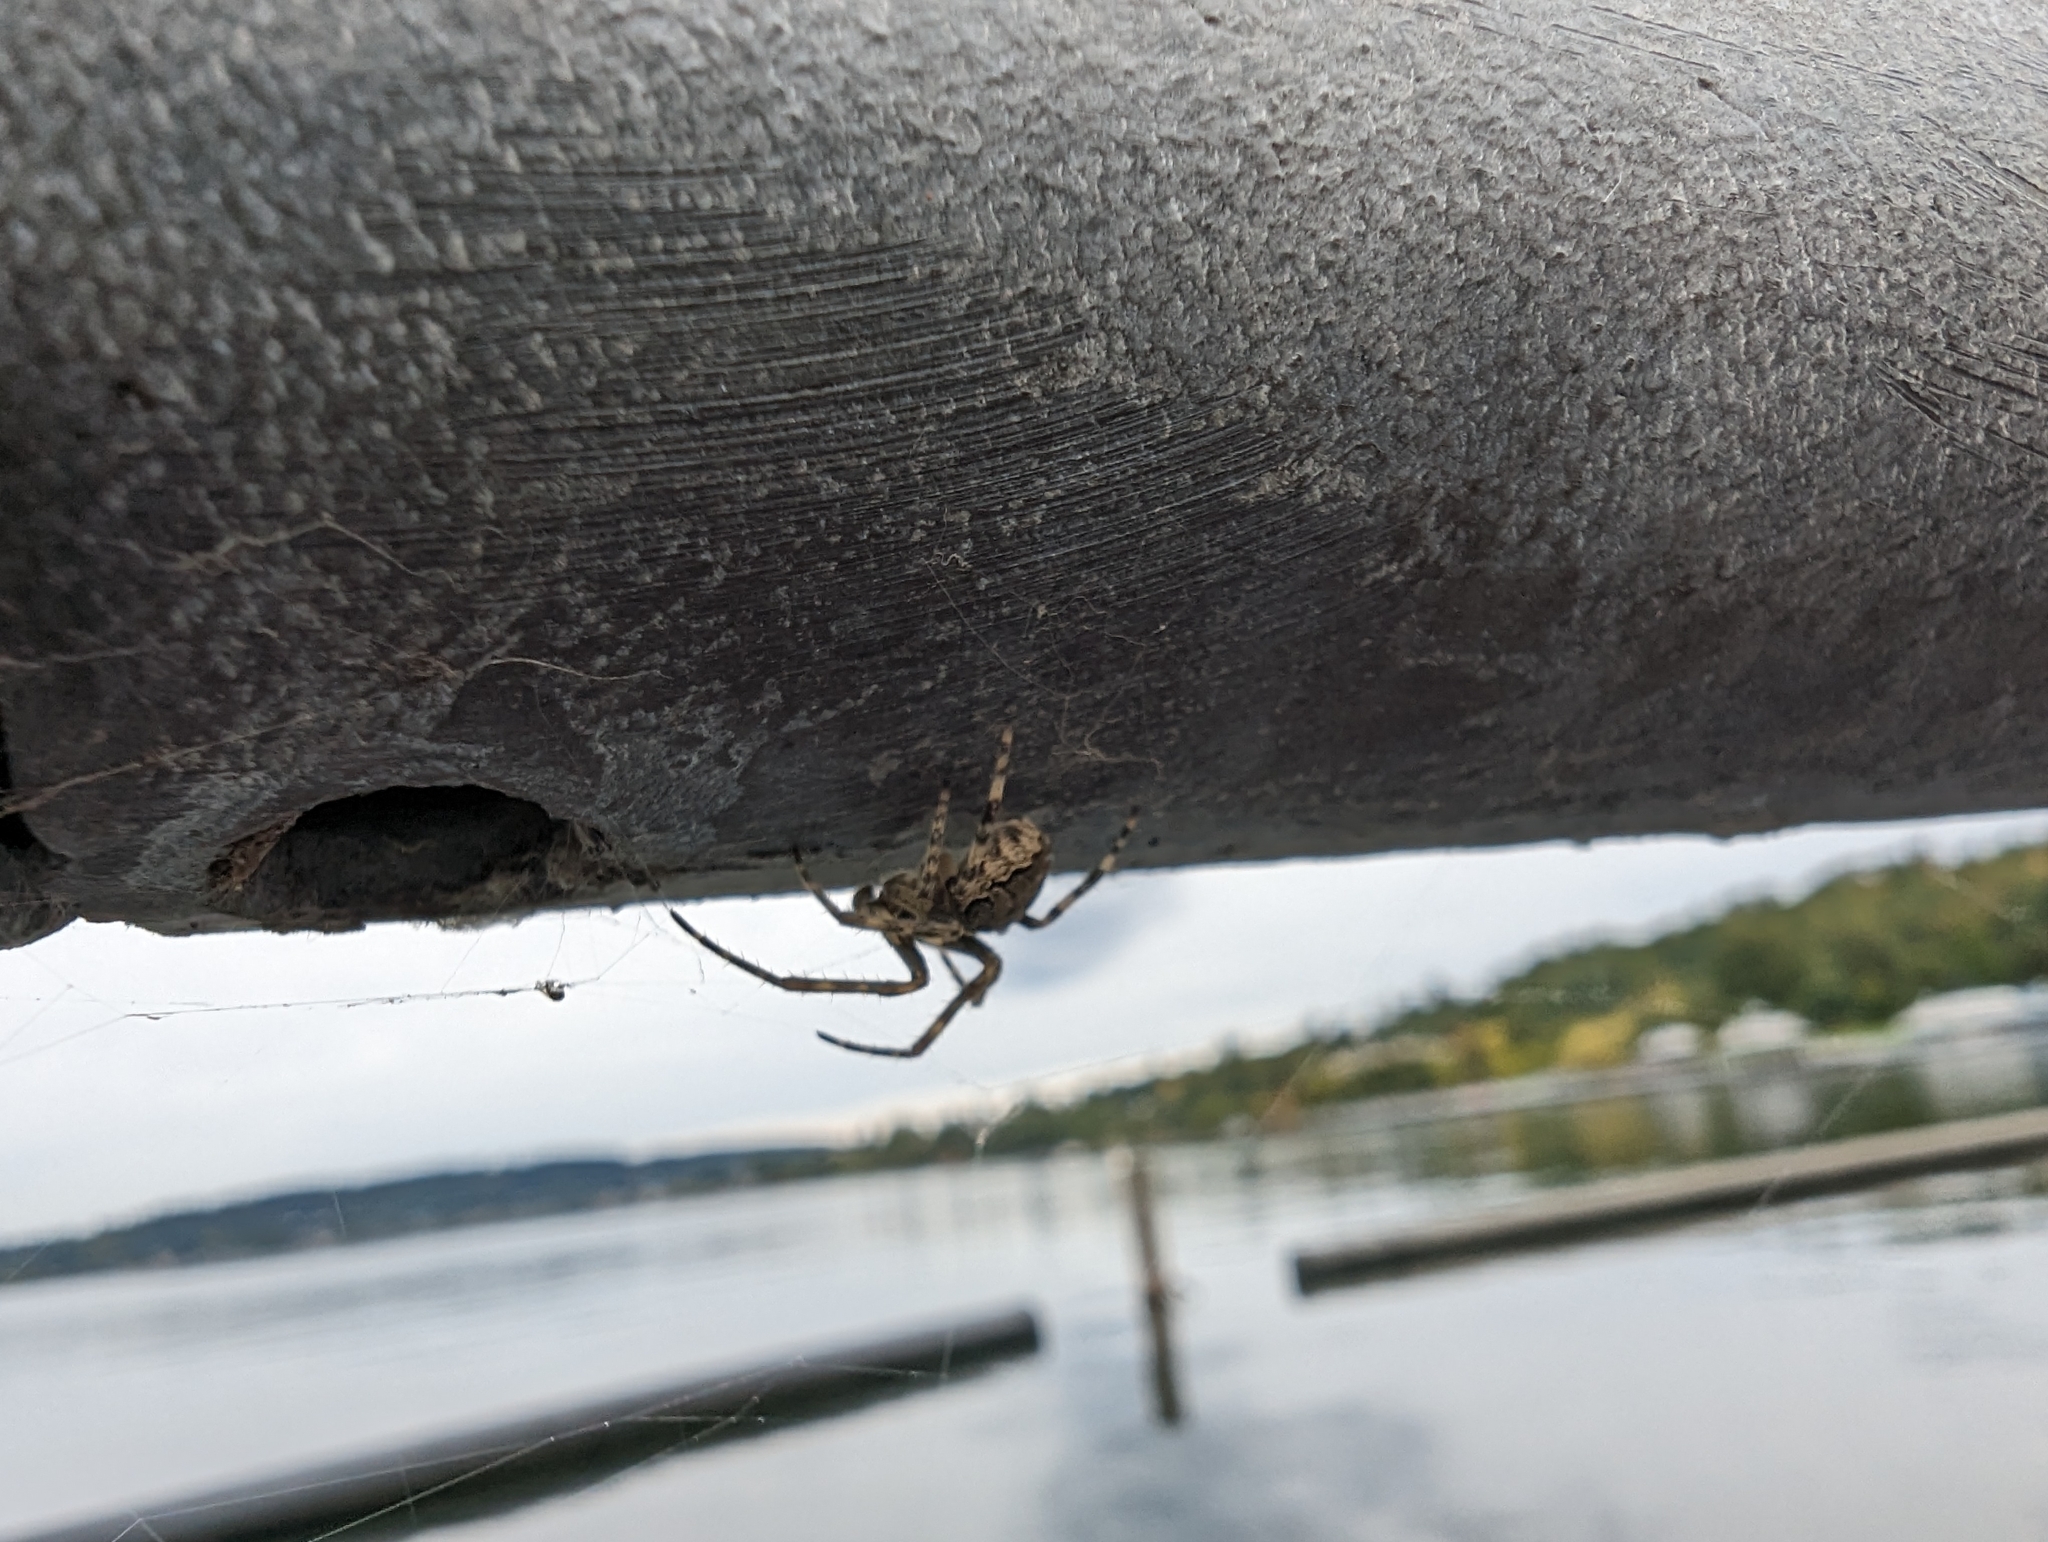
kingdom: Animalia
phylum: Arthropoda
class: Arachnida
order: Araneae
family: Araneidae
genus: Larinioides
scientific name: Larinioides sclopetarius
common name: Bridge orbweaver
